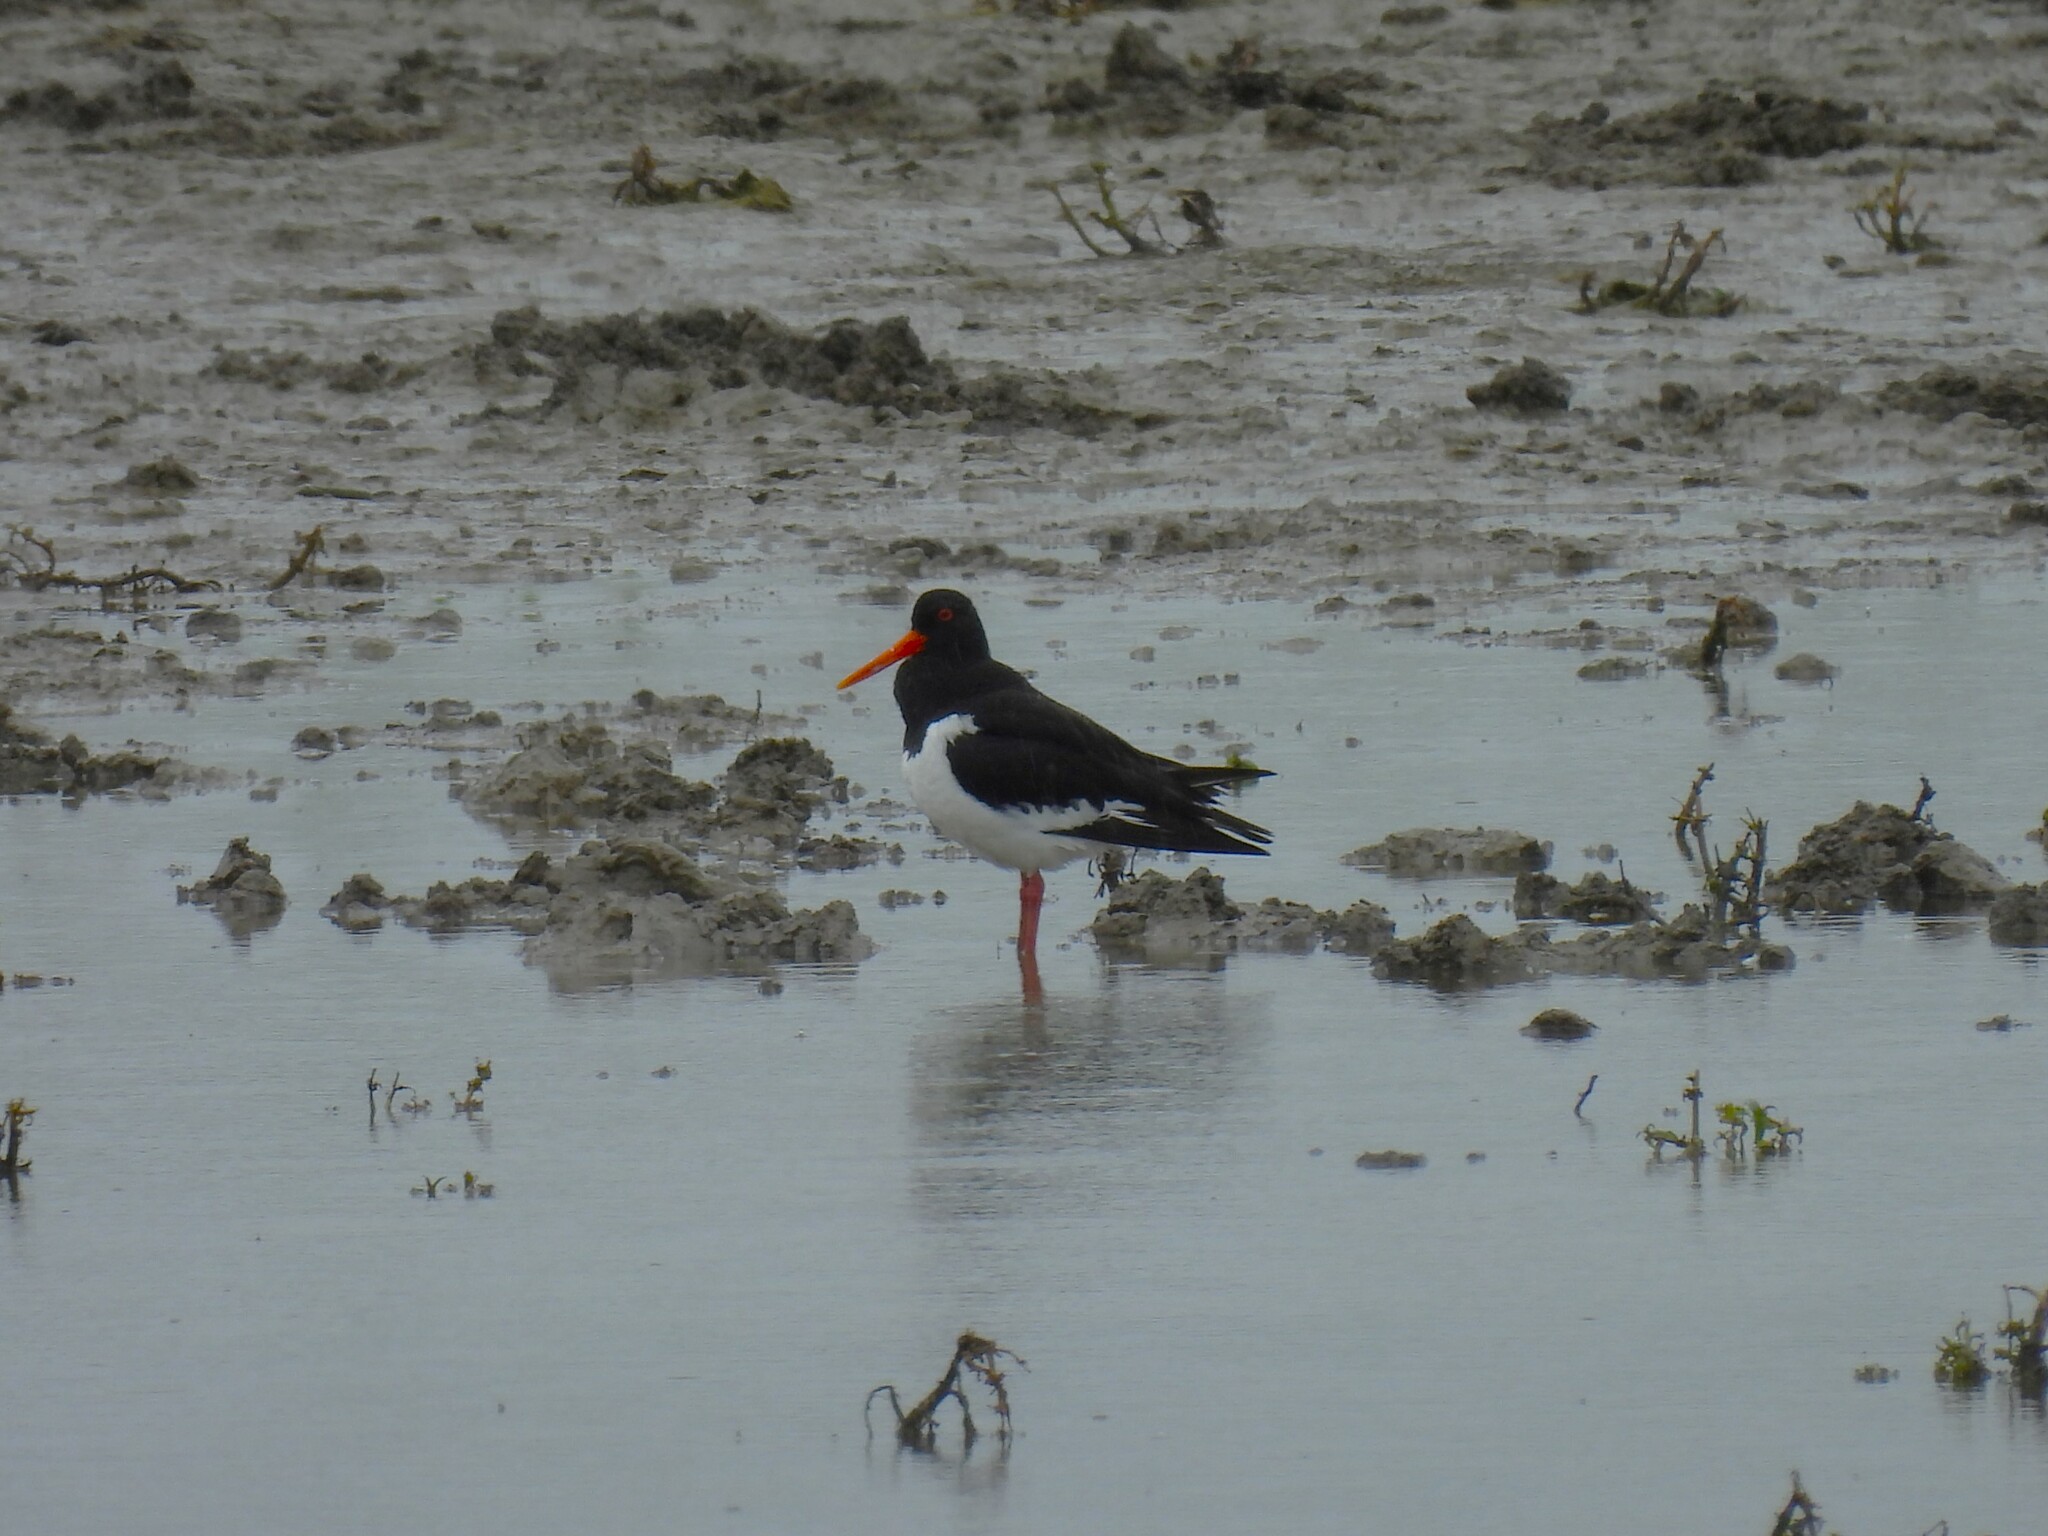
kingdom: Animalia
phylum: Chordata
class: Aves
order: Charadriiformes
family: Haematopodidae
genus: Haematopus
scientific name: Haematopus ostralegus
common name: Eurasian oystercatcher
